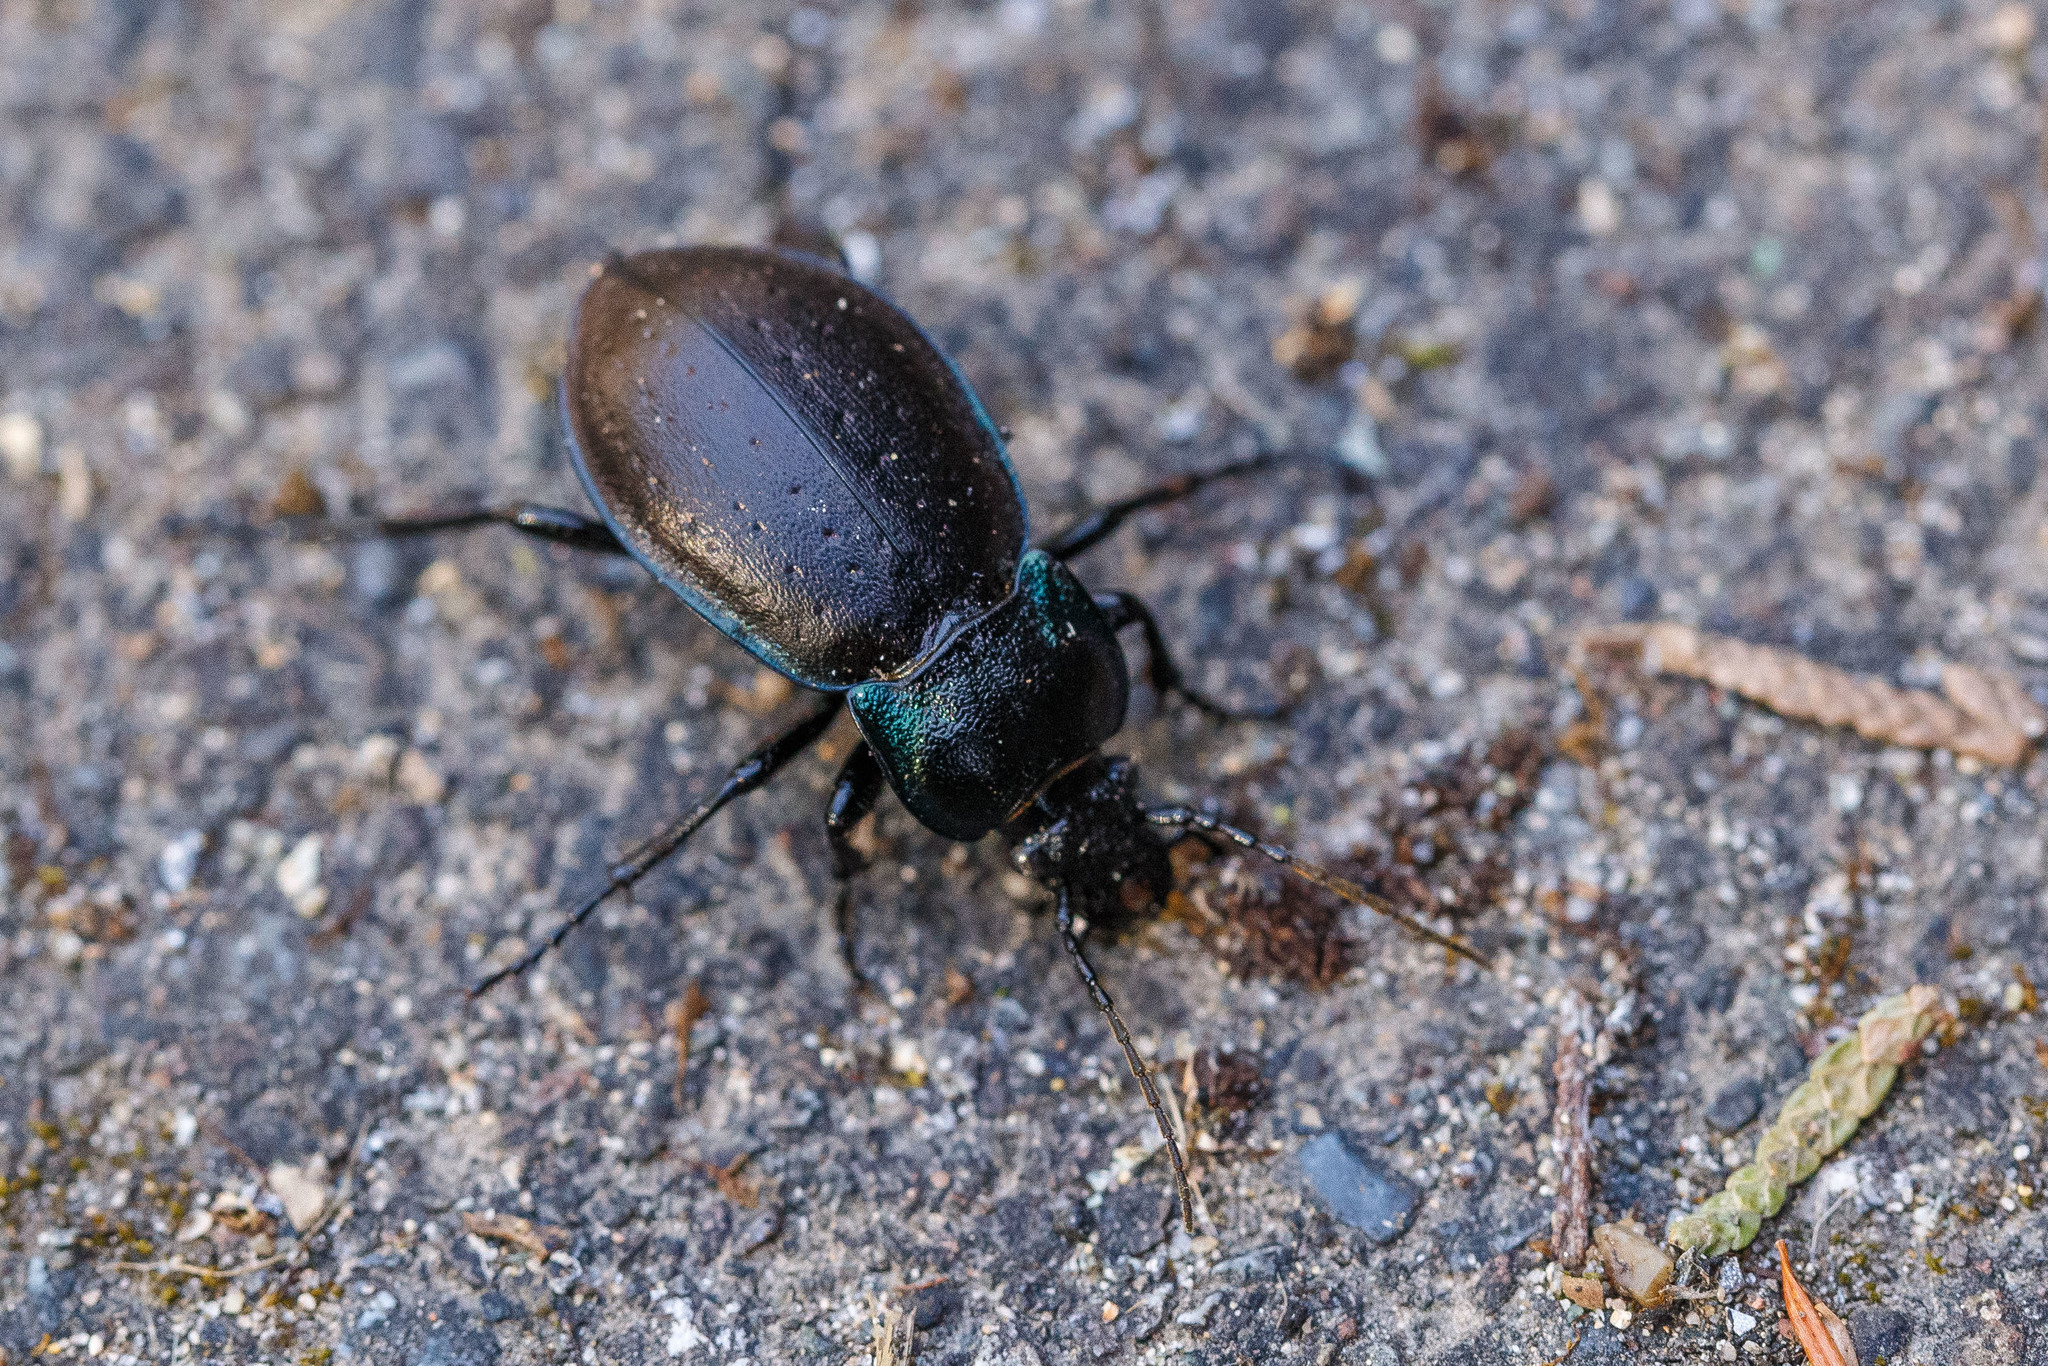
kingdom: Animalia
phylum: Arthropoda
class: Insecta
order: Coleoptera
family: Carabidae
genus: Carabus
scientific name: Carabus nemoralis
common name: European ground beetle
